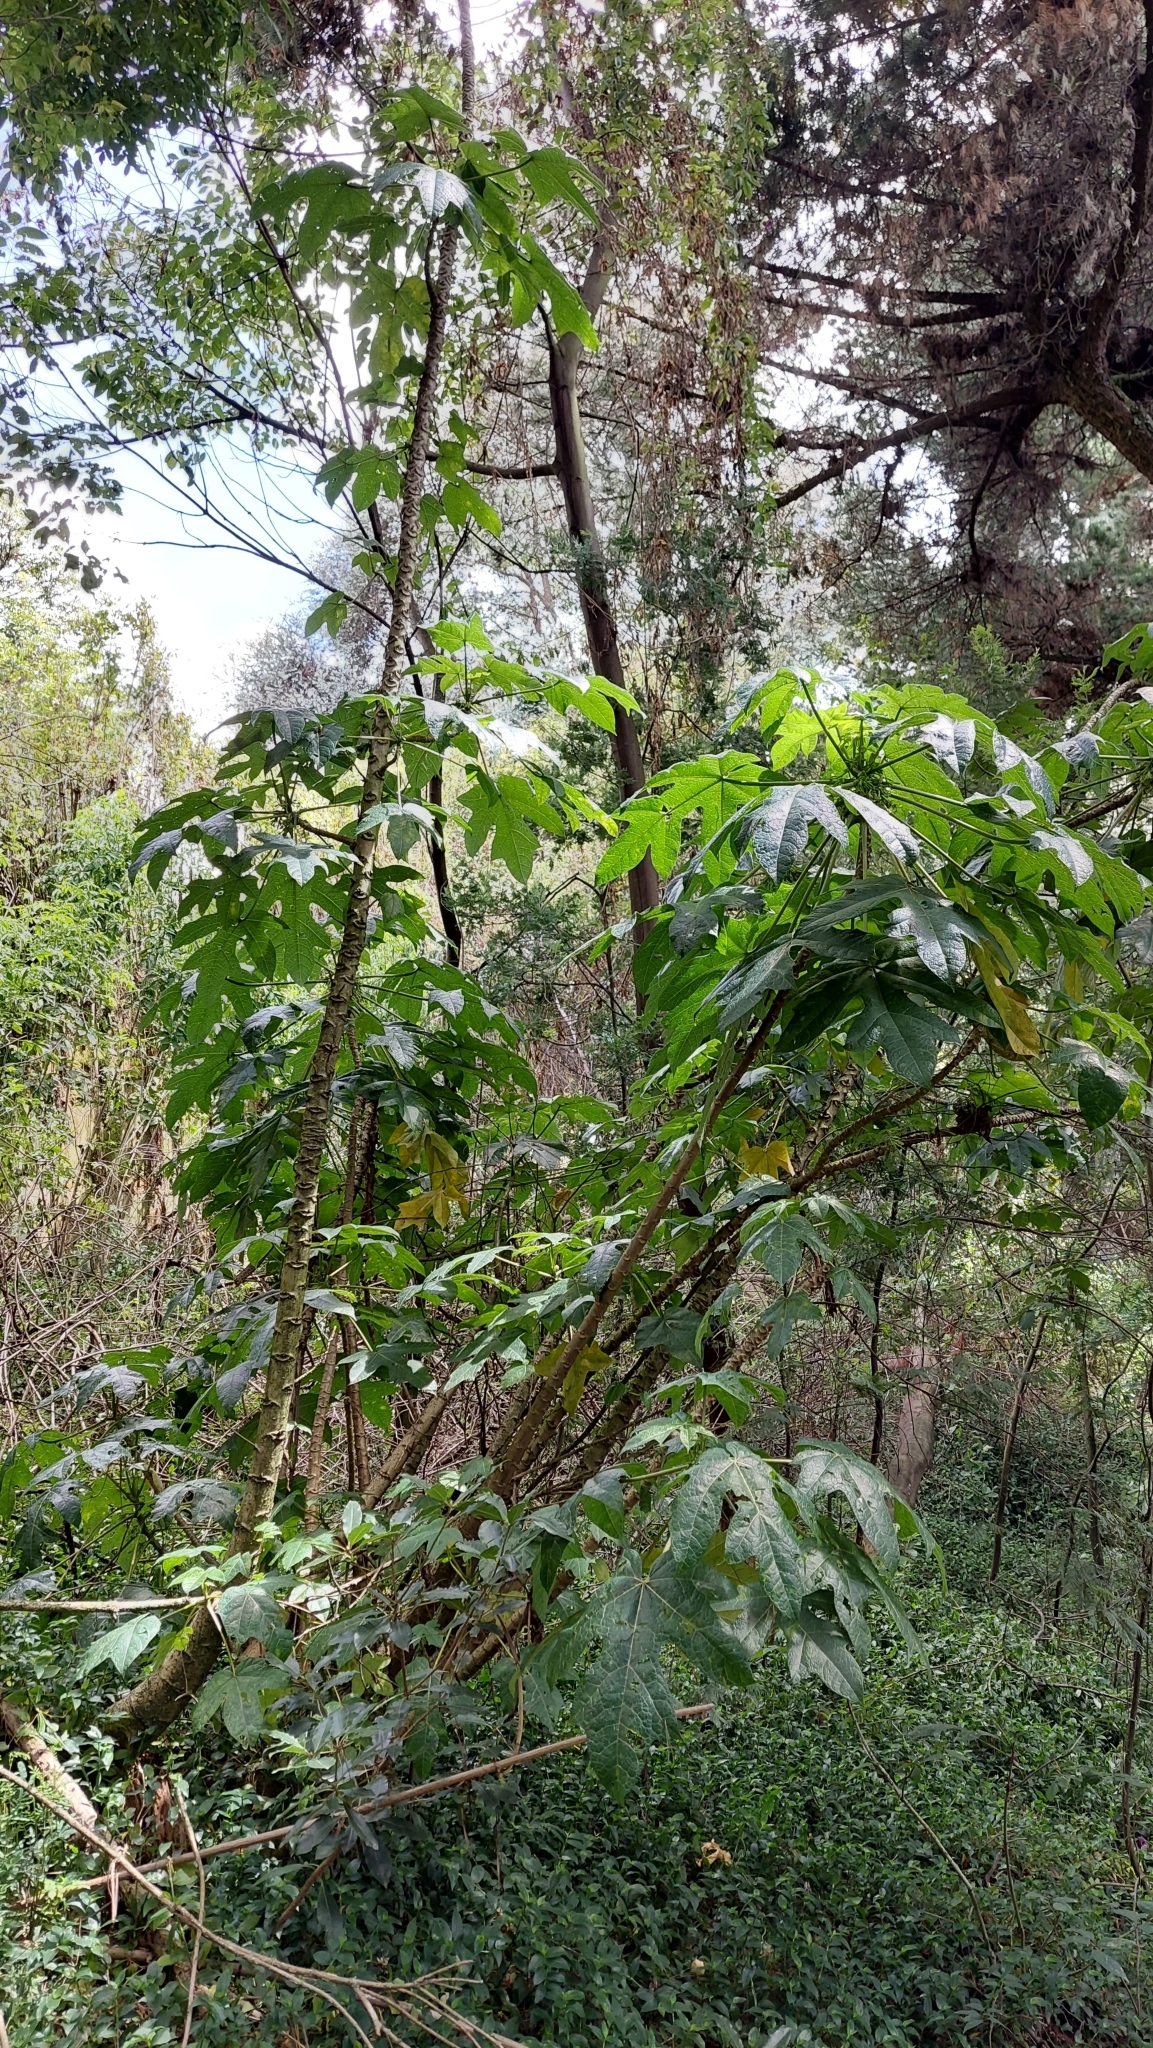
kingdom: Plantae
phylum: Tracheophyta
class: Magnoliopsida
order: Brassicales
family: Caricaceae
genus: Vasconcellea
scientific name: Vasconcellea pubescens
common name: Mountain papaya
